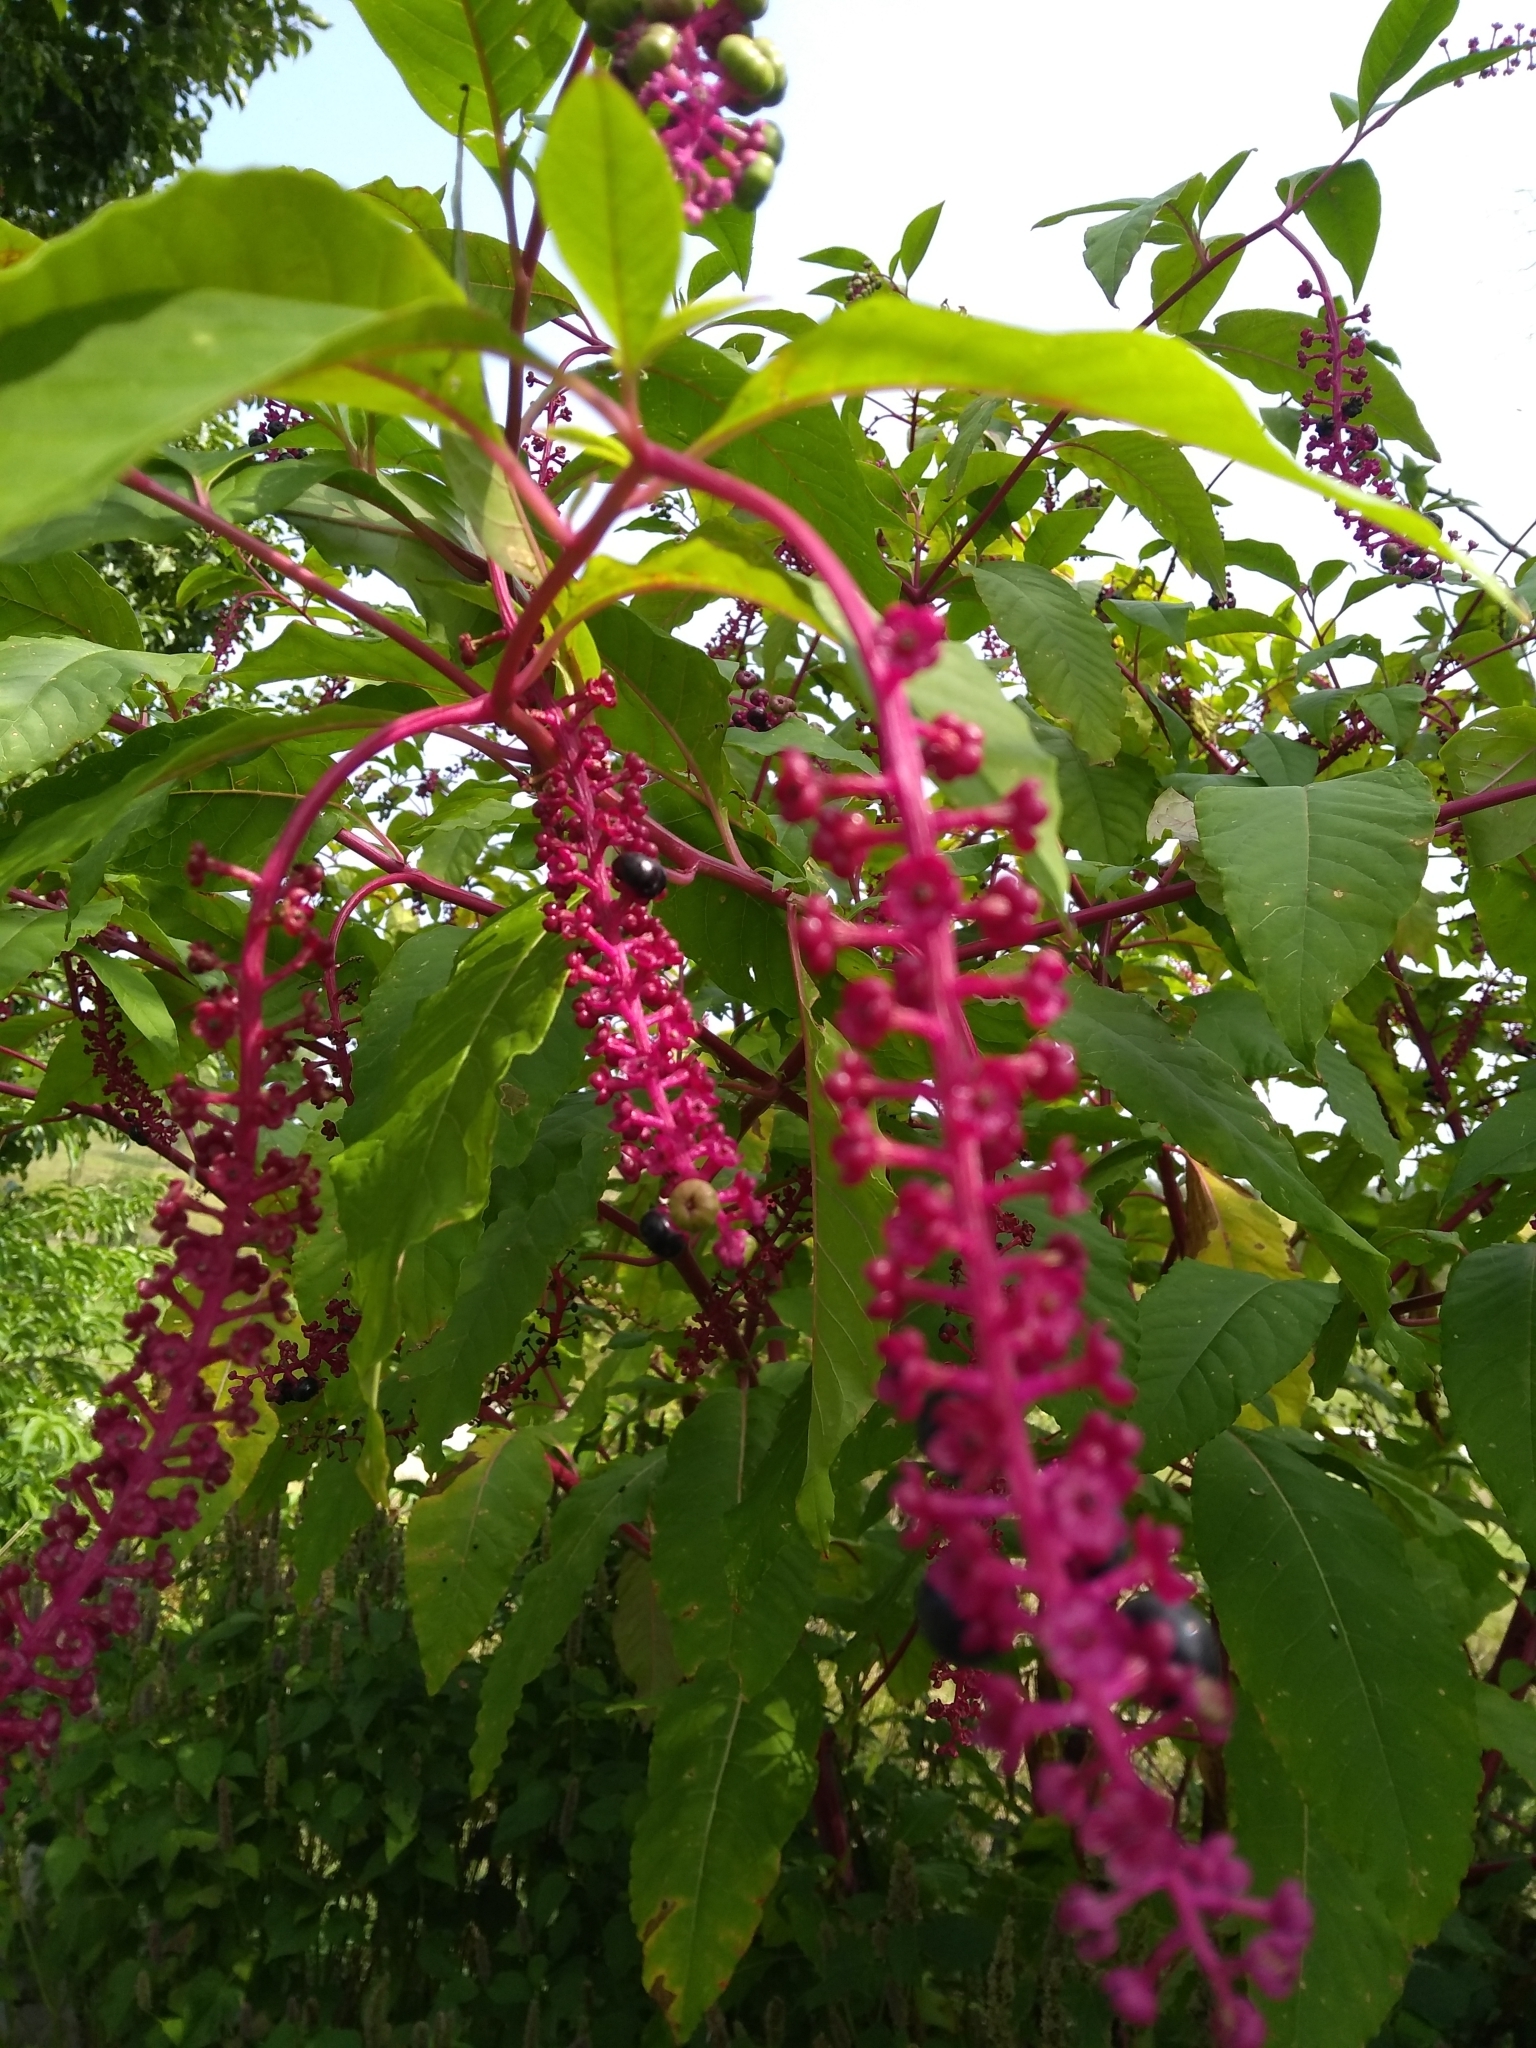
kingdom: Plantae
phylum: Tracheophyta
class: Magnoliopsida
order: Caryophyllales
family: Phytolaccaceae
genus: Phytolacca
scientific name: Phytolacca americana
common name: American pokeweed
